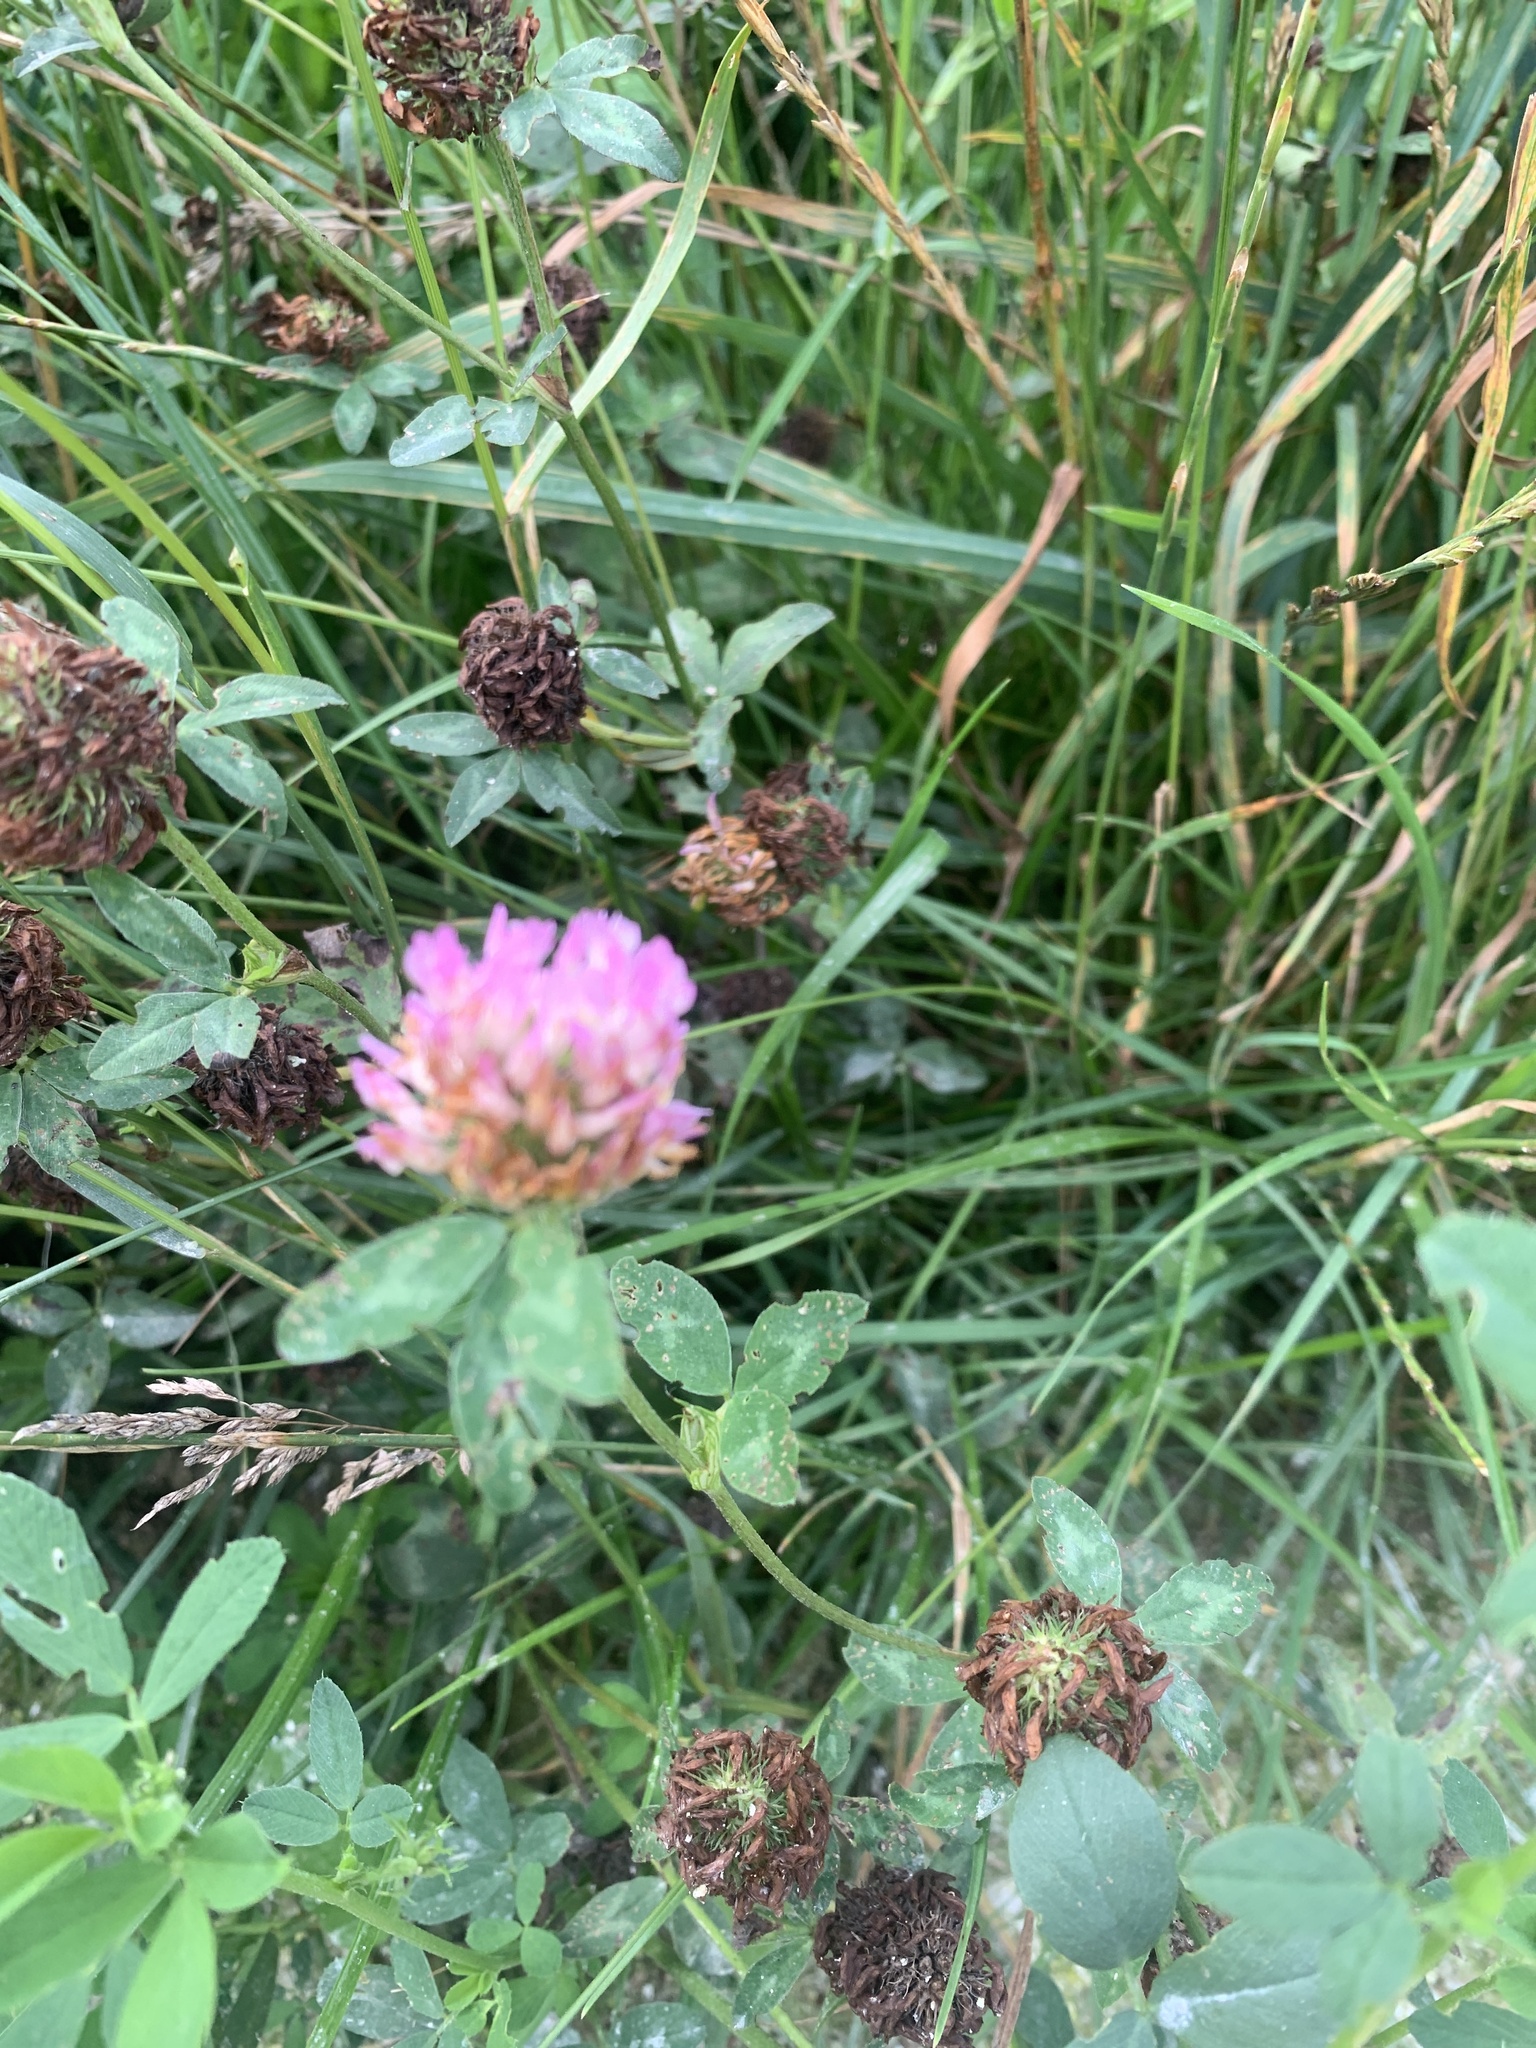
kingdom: Plantae
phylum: Tracheophyta
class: Magnoliopsida
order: Fabales
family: Fabaceae
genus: Trifolium
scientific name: Trifolium pratense
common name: Red clover
